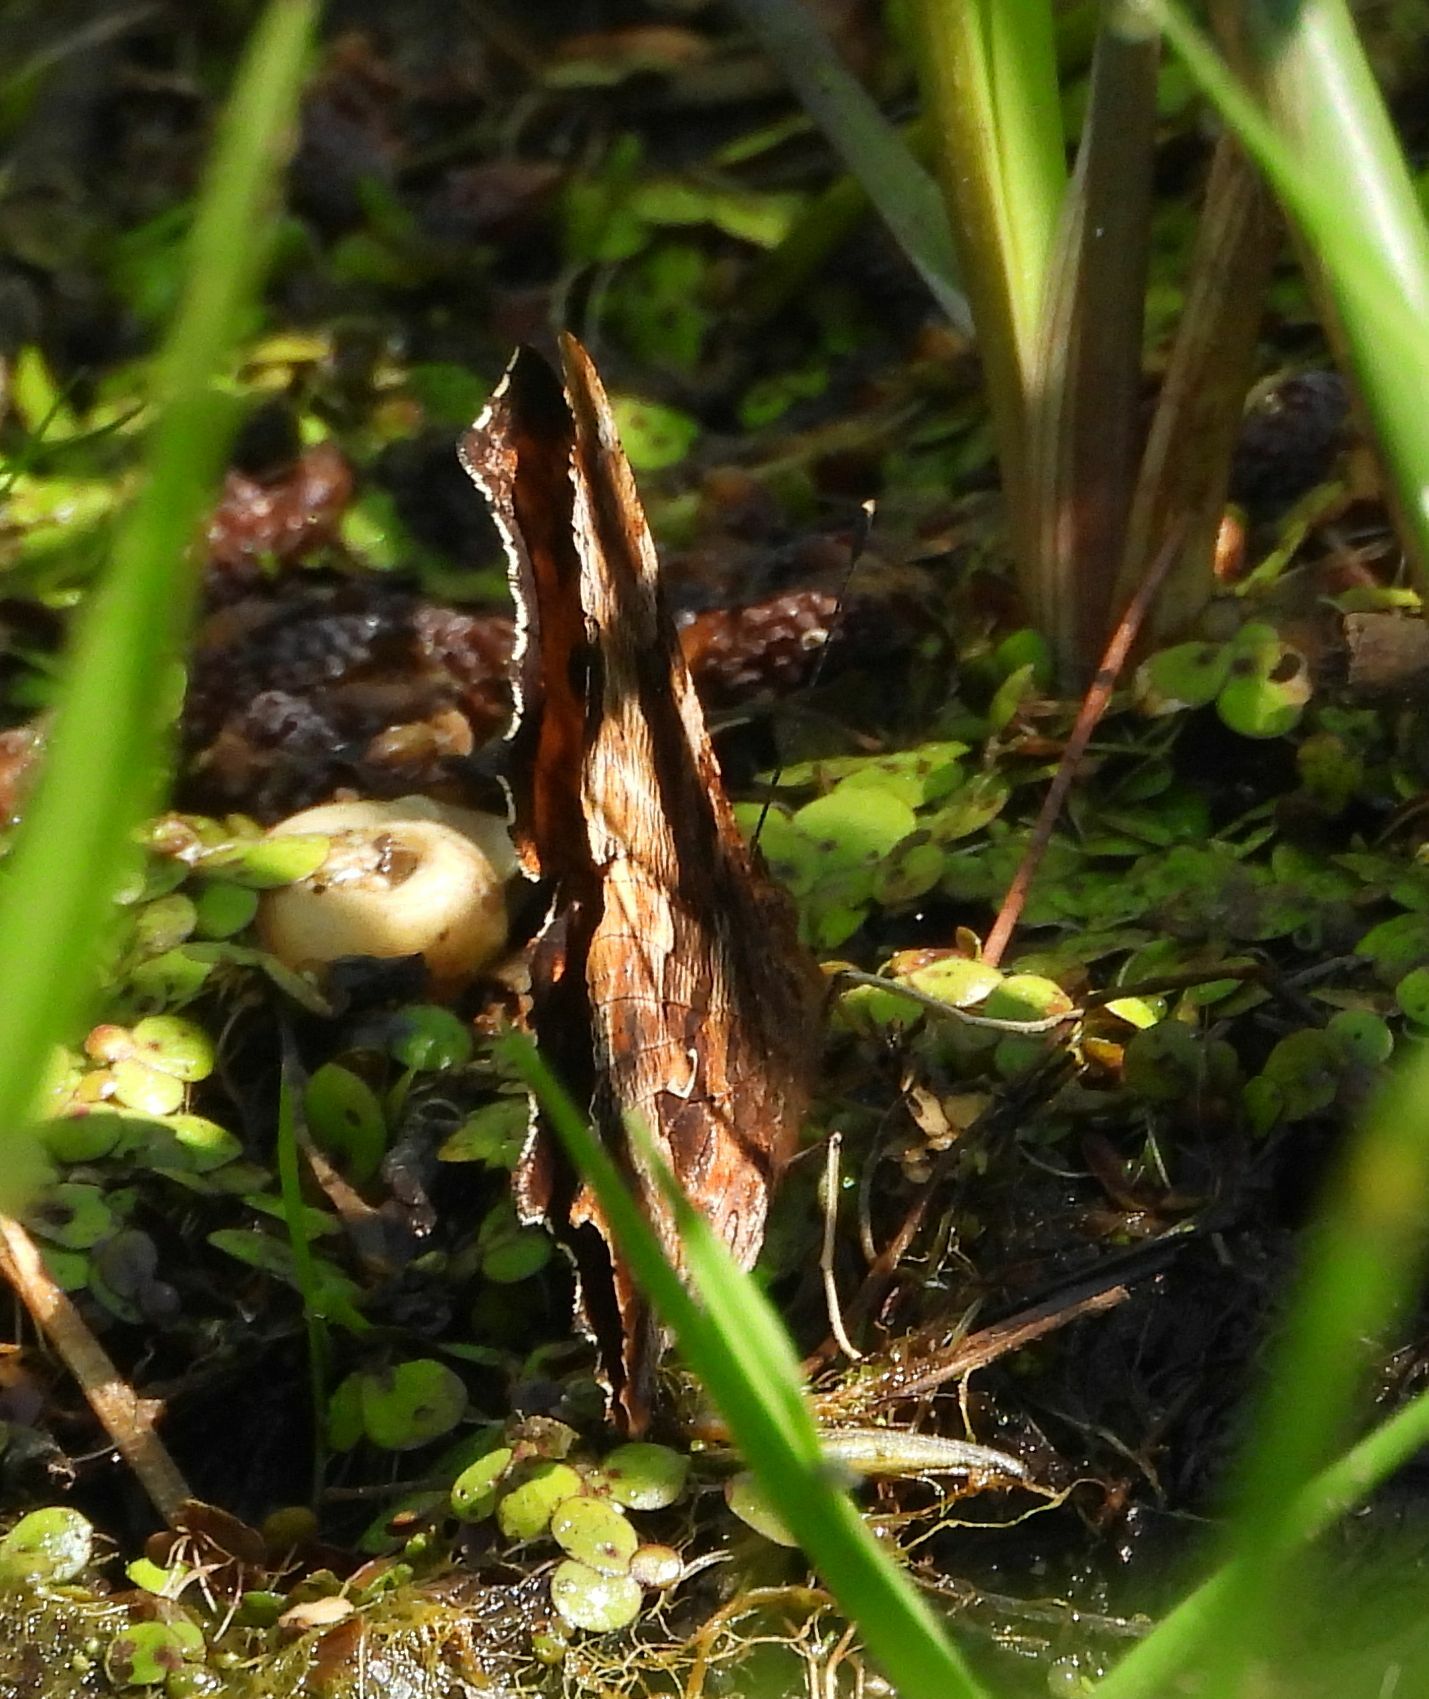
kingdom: Animalia
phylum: Arthropoda
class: Insecta
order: Lepidoptera
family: Nymphalidae
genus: Polygonia
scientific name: Polygonia comma
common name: Eastern comma
